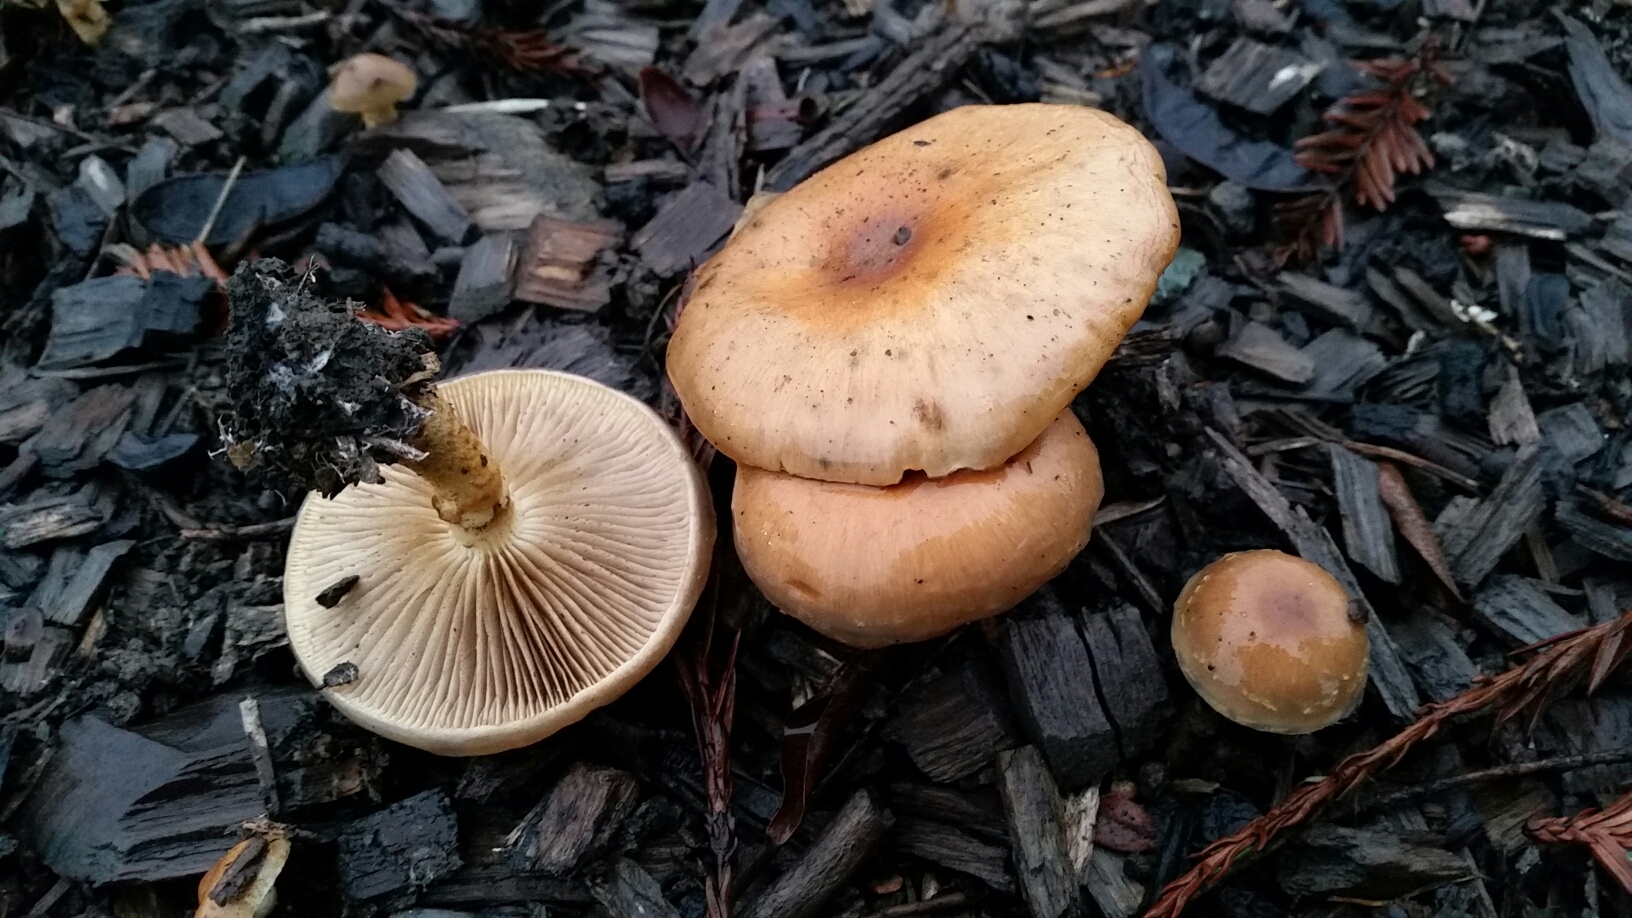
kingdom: Fungi
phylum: Basidiomycota
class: Agaricomycetes
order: Agaricales
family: Strophariaceae
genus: Pholiota
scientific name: Pholiota velaglutinosa
